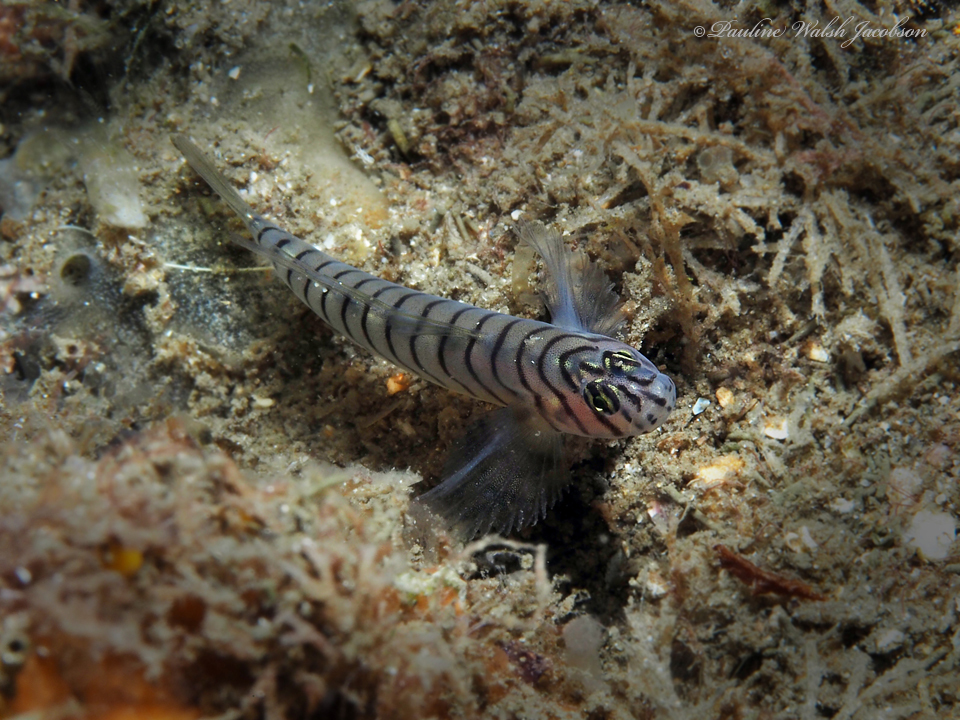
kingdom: Animalia
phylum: Chordata
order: Perciformes
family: Gobiidae
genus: Tigrigobius
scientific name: Tigrigobius macrodon
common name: Tiger goby
